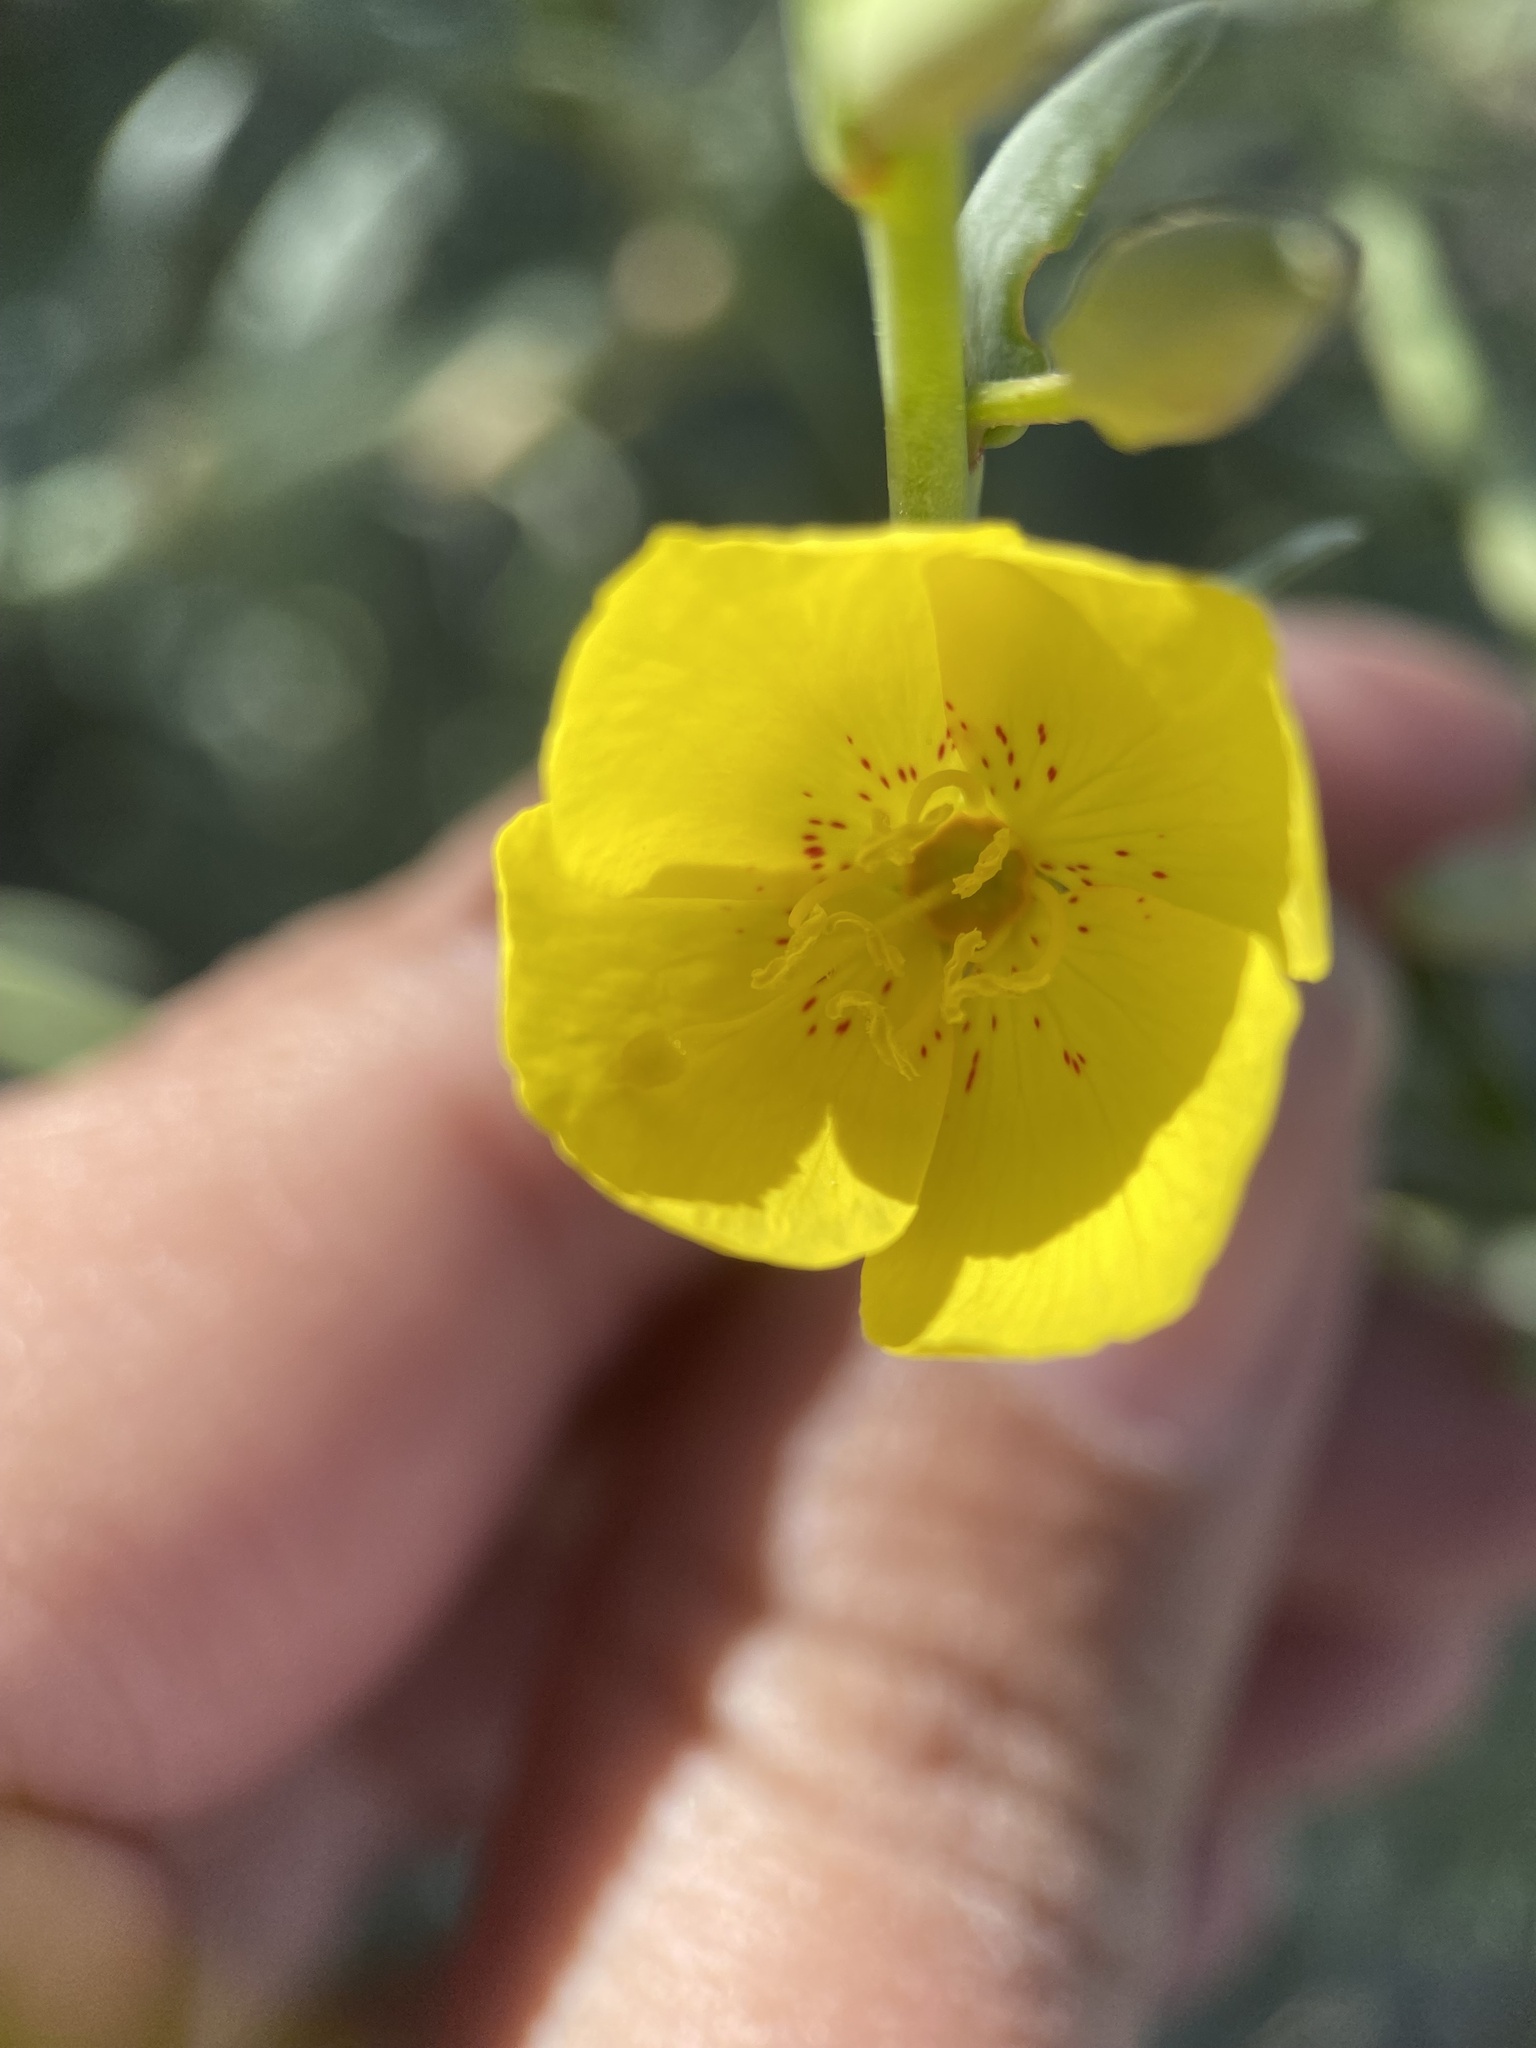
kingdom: Plantae
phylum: Tracheophyta
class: Magnoliopsida
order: Myrtales
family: Onagraceae
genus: Eulobus
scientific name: Eulobus crassifolius
